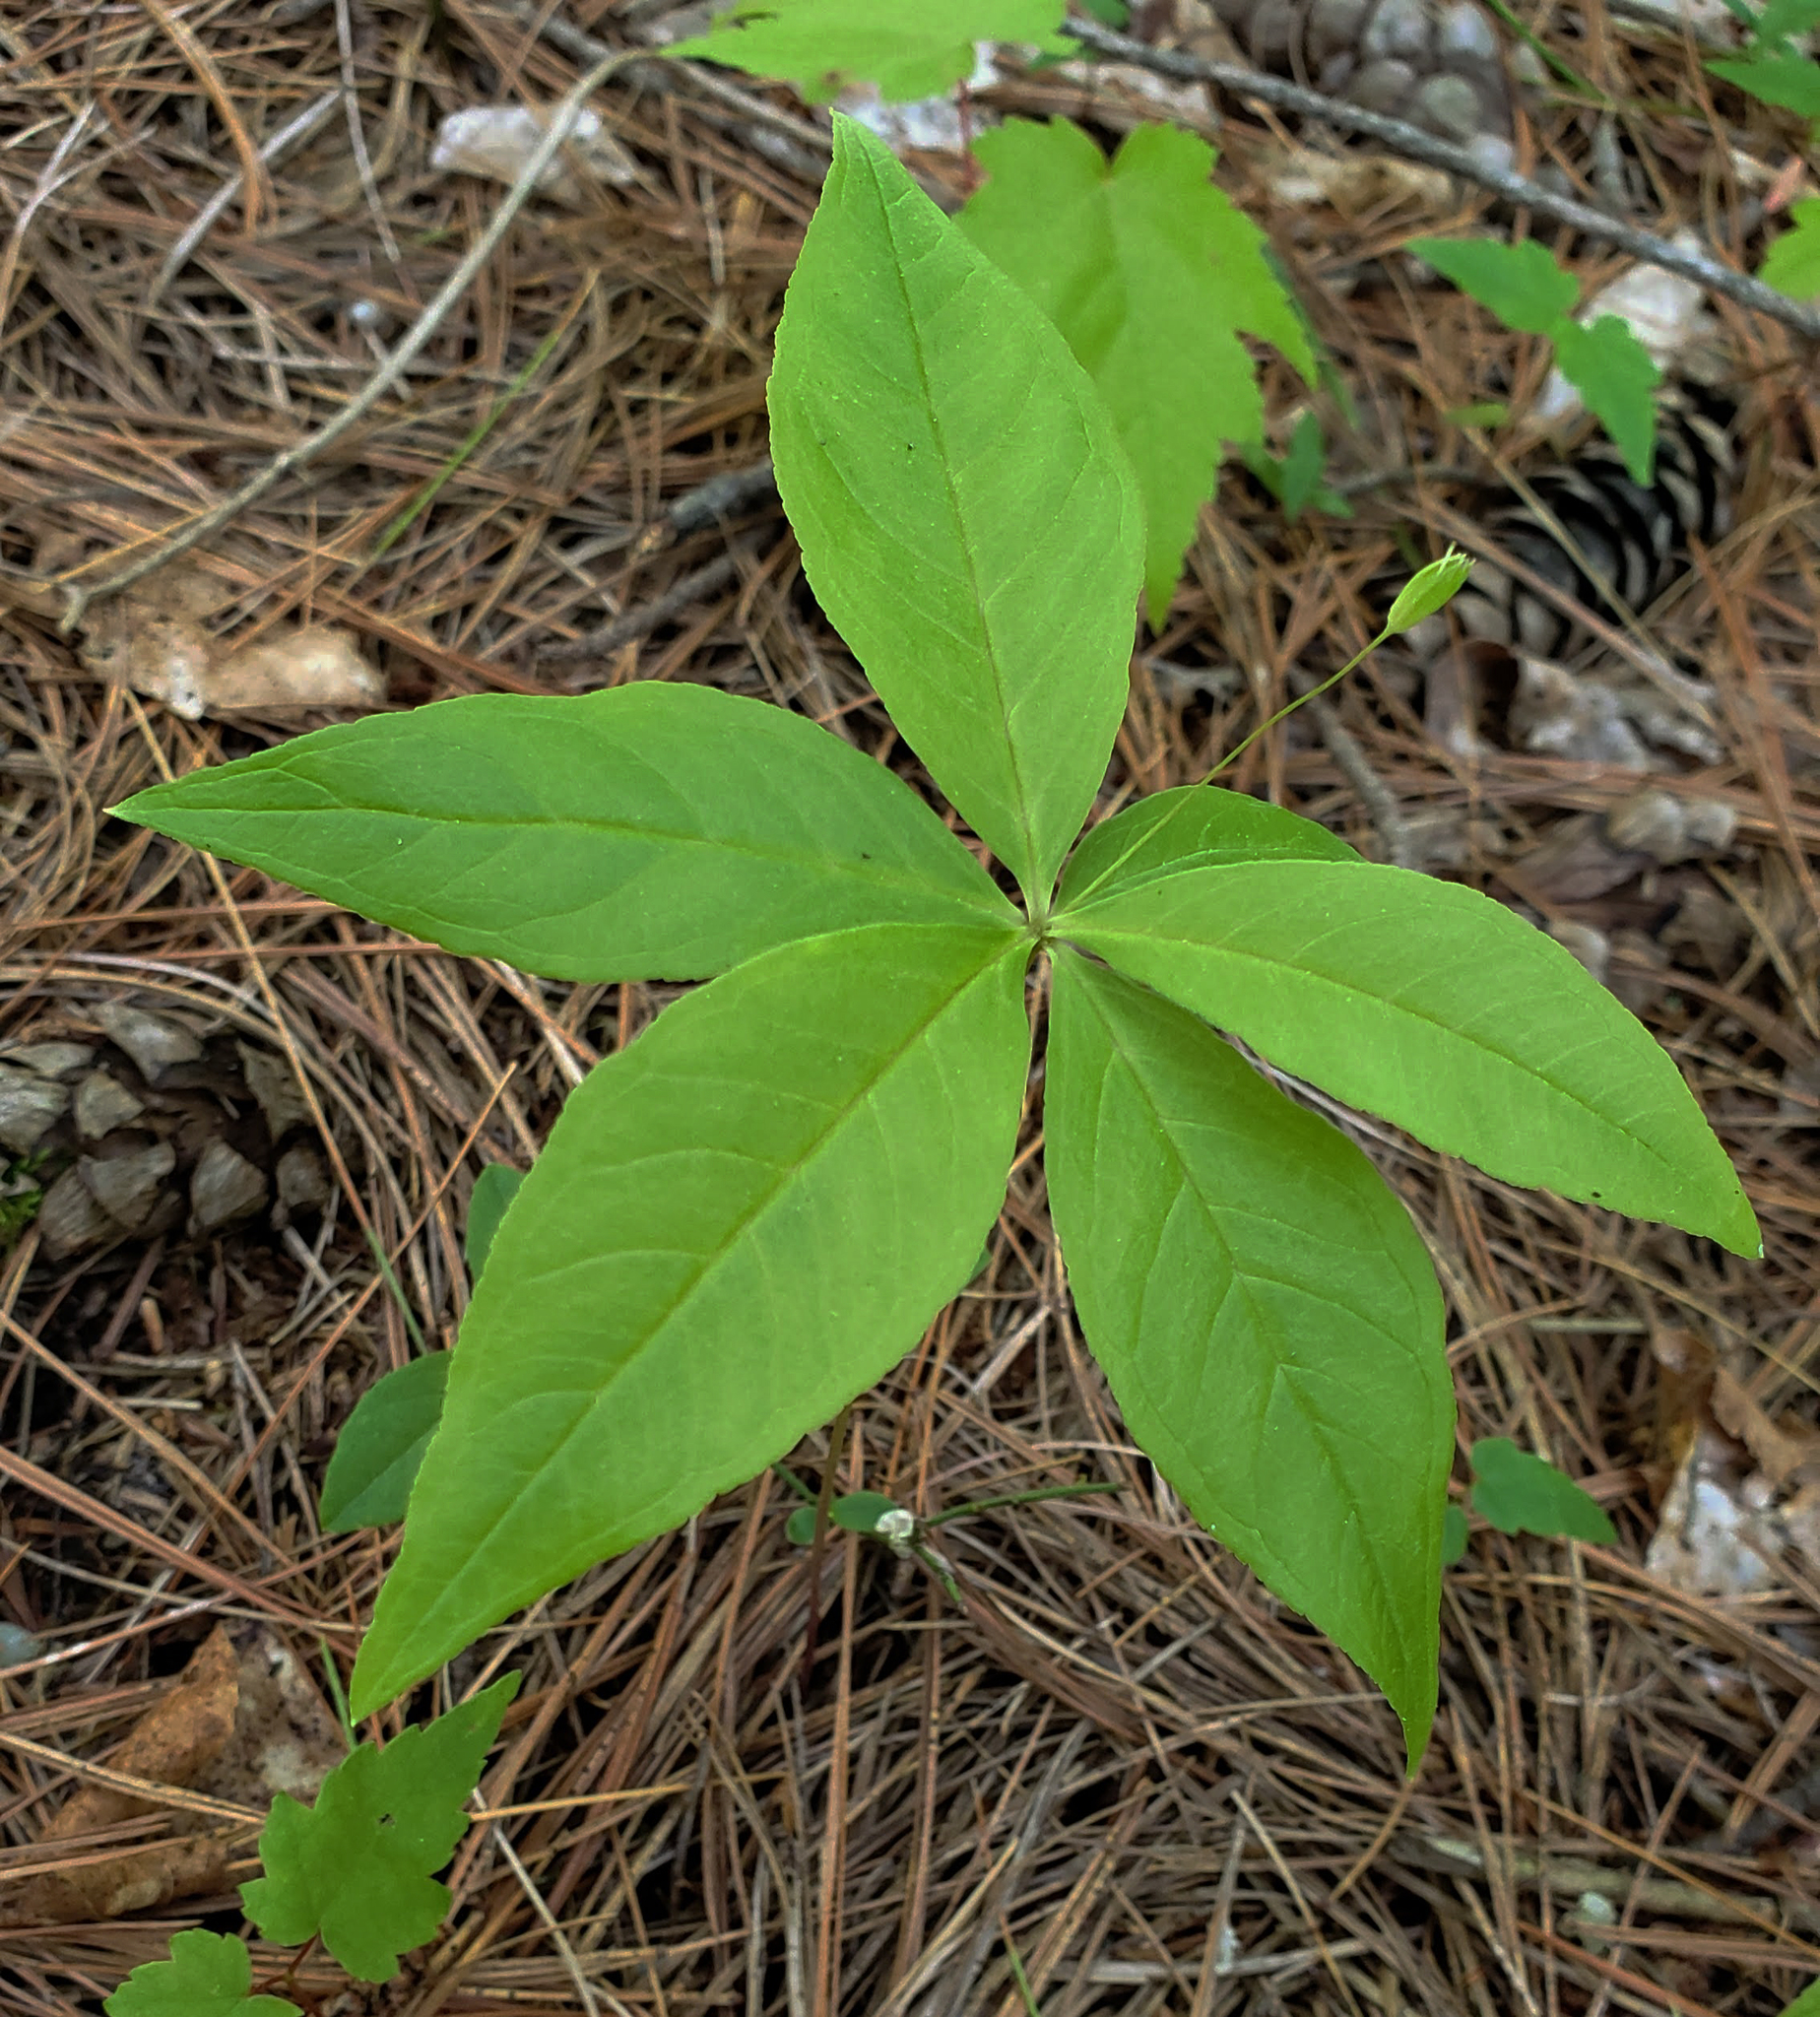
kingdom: Plantae
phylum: Tracheophyta
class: Magnoliopsida
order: Ericales
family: Primulaceae
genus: Lysimachia
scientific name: Lysimachia borealis
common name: American starflower
